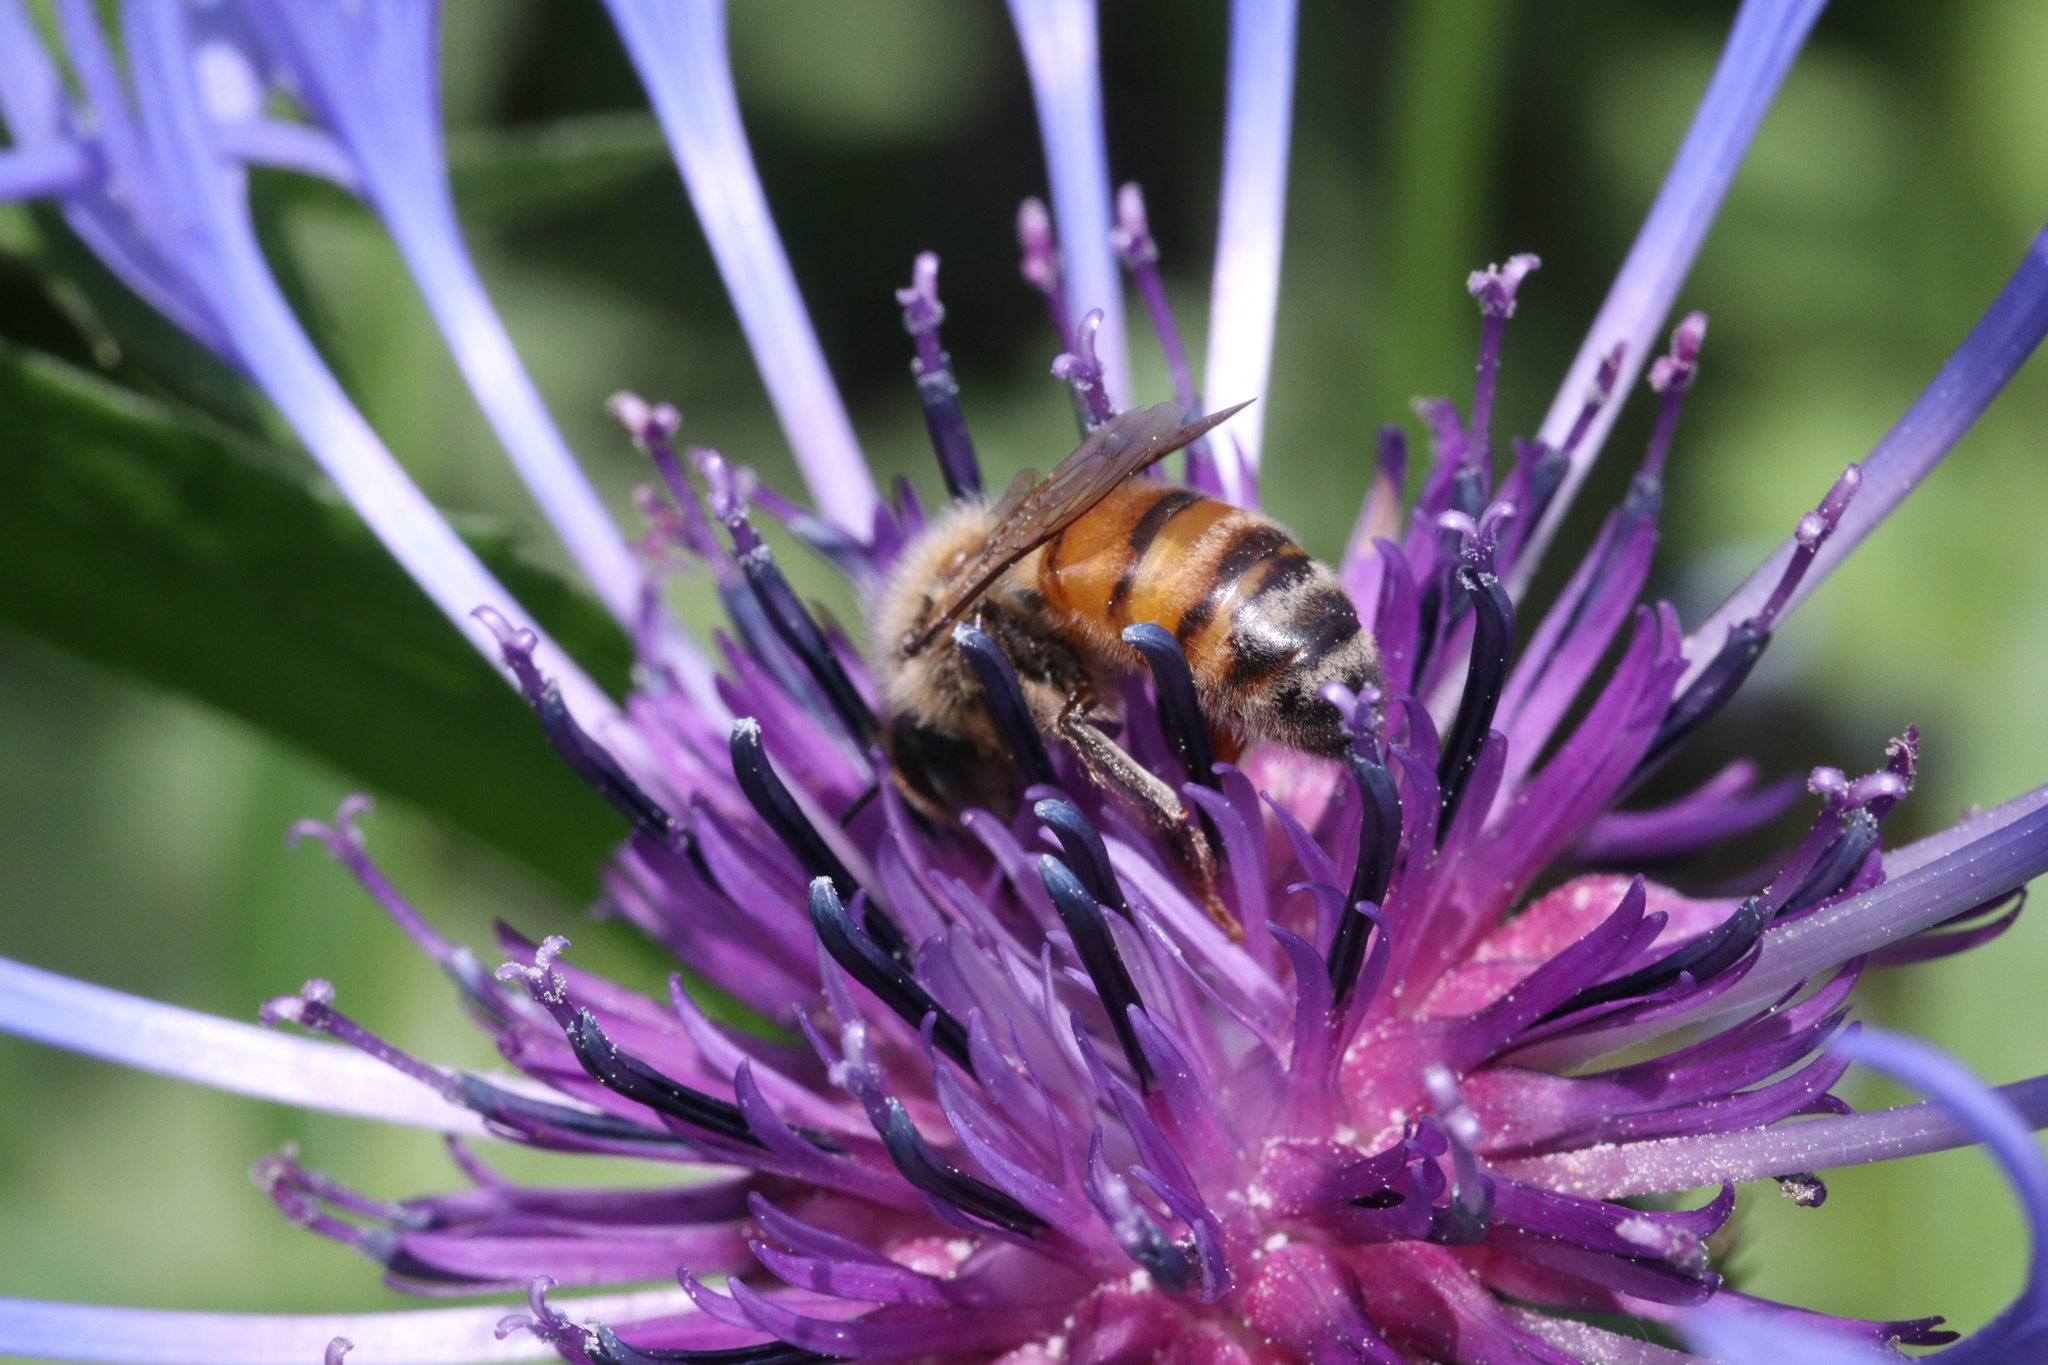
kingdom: Animalia
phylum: Arthropoda
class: Insecta
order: Hymenoptera
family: Apidae
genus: Apis
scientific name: Apis mellifera
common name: Honey bee
